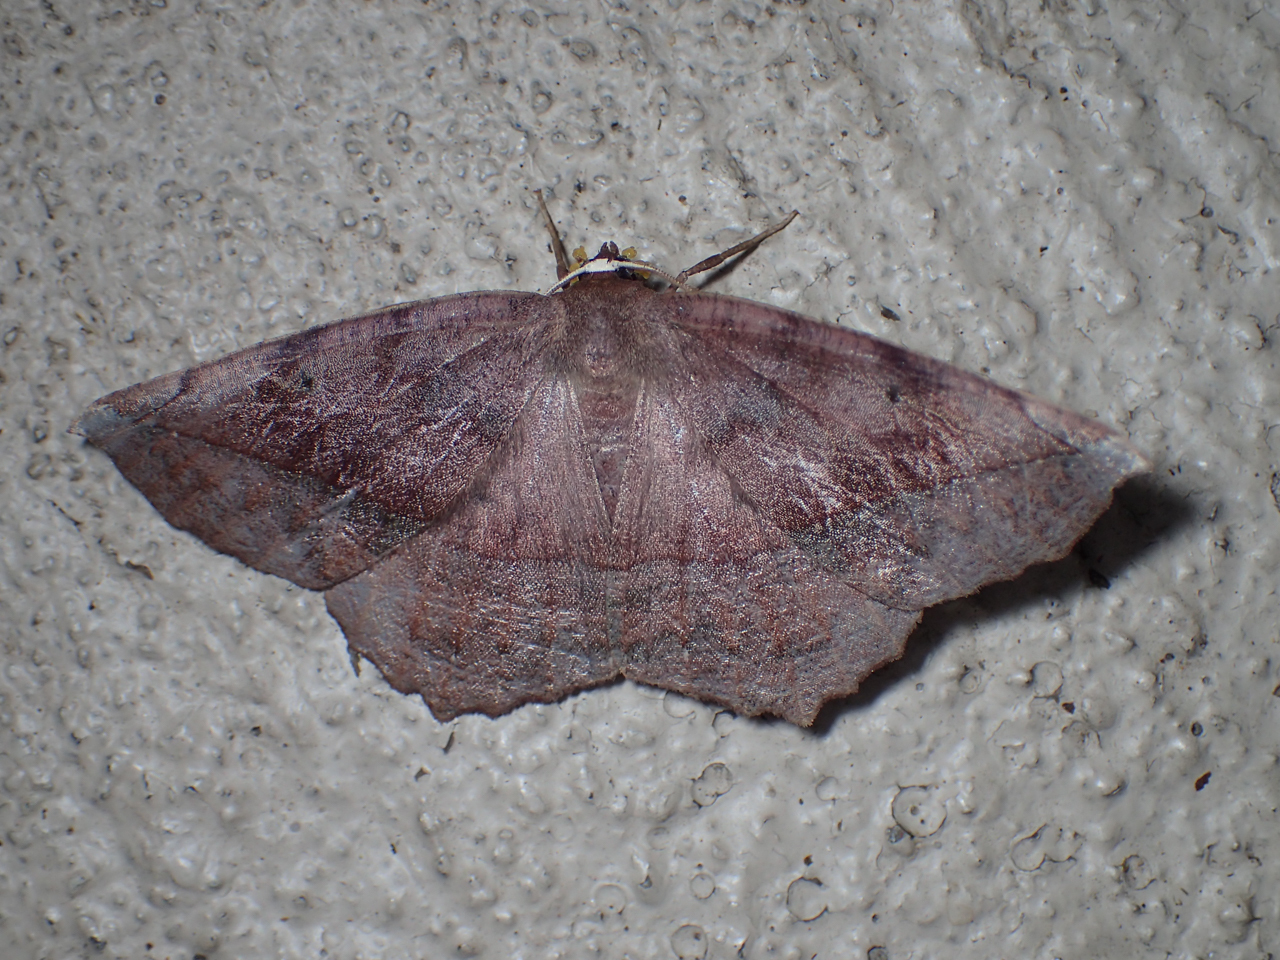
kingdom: Animalia
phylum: Arthropoda
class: Insecta
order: Lepidoptera
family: Geometridae
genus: Eutrapela
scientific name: Eutrapela clemataria
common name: Curved-toothed geometer
